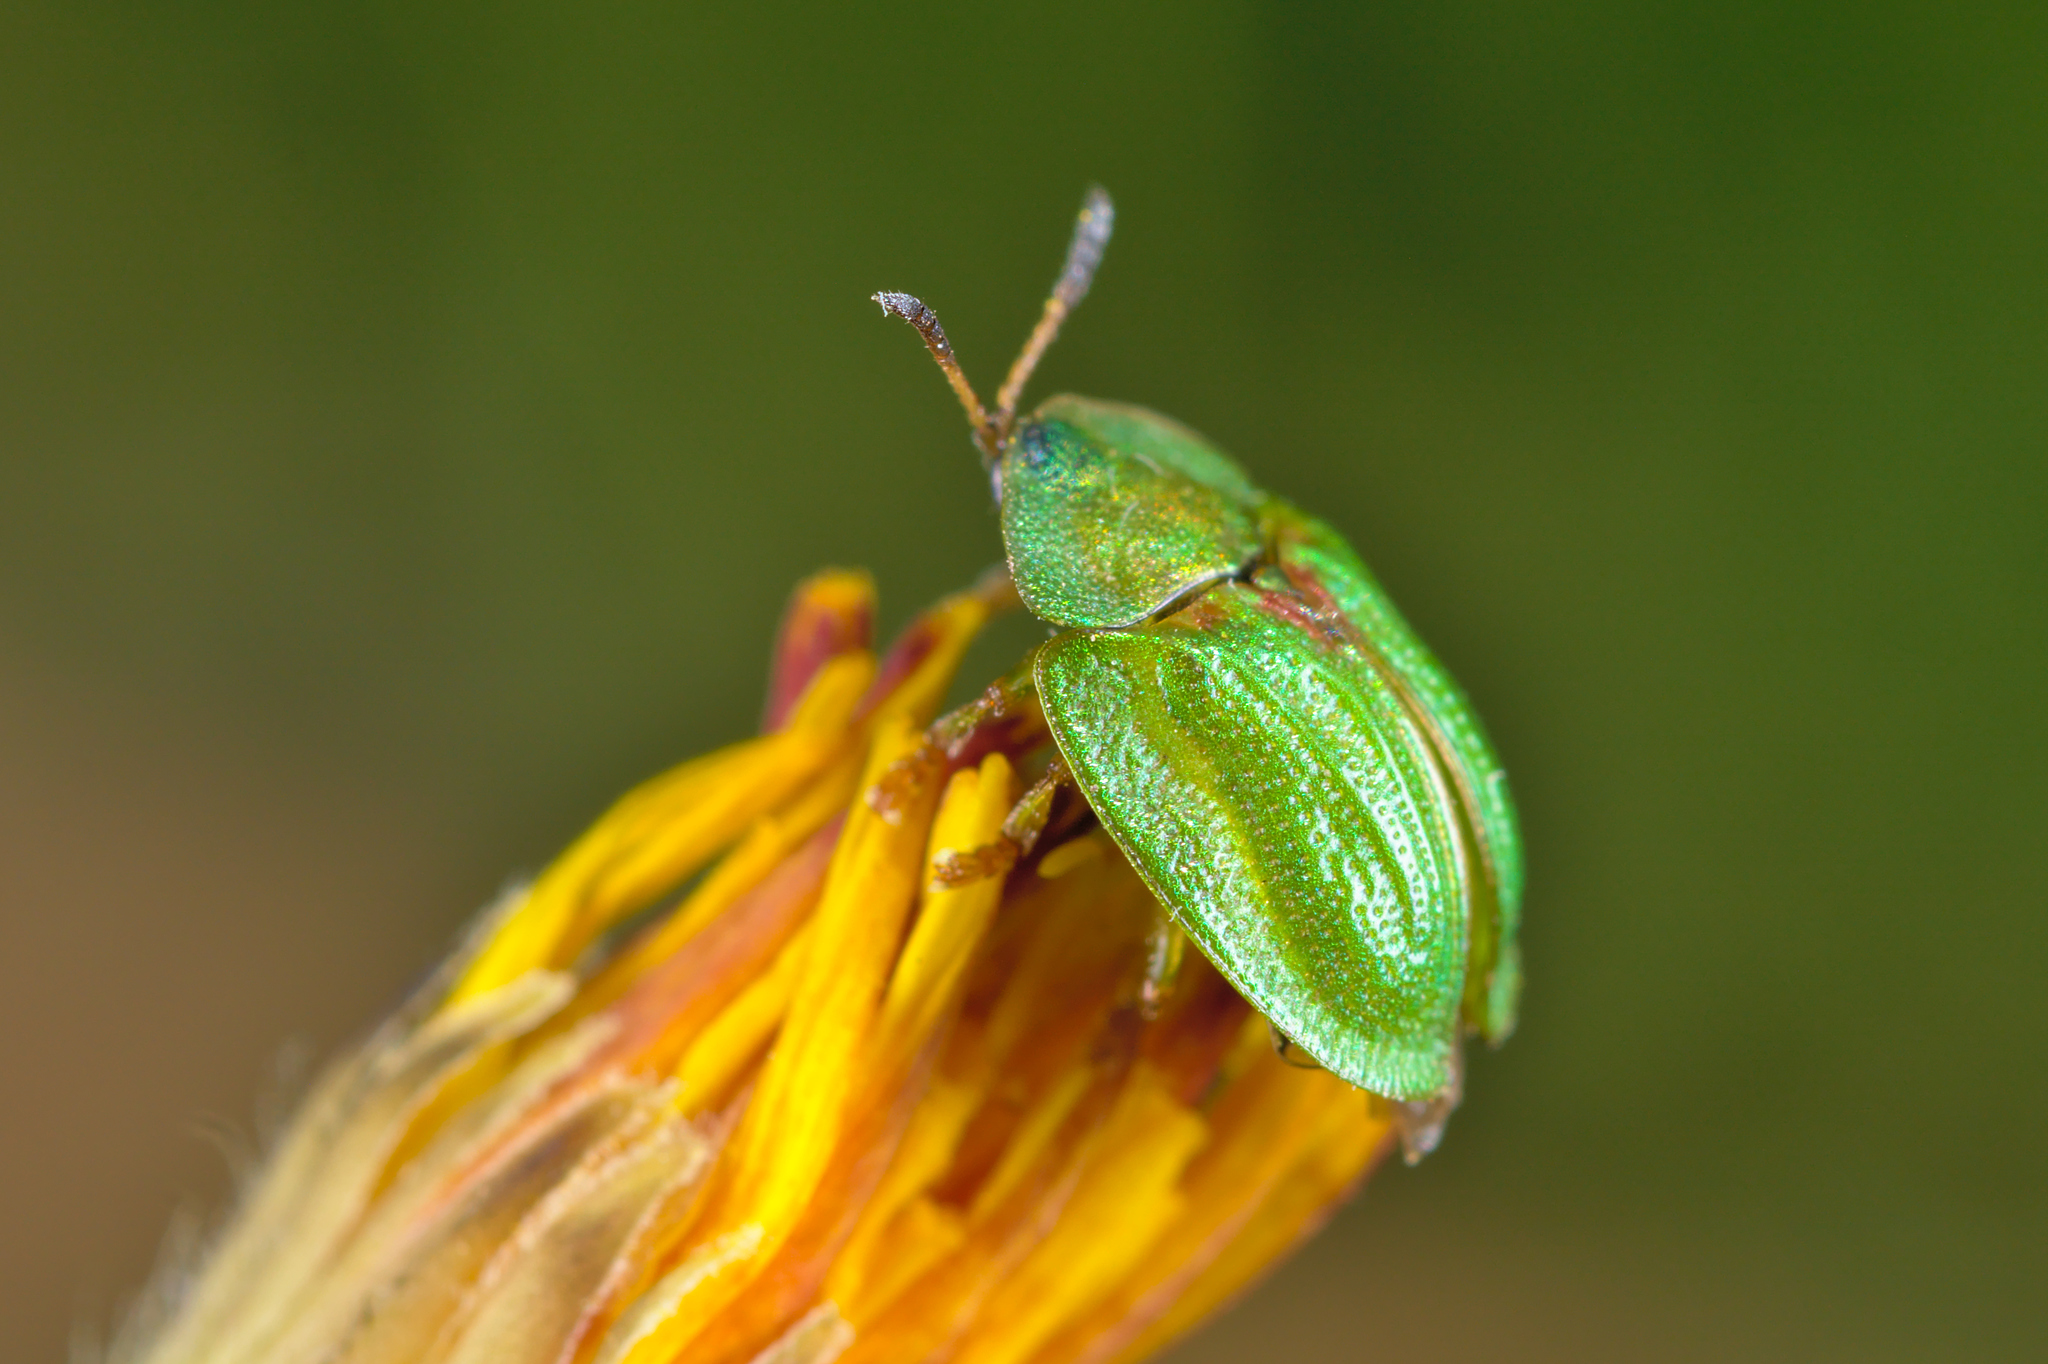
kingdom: Animalia
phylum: Arthropoda
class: Insecta
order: Coleoptera
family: Chrysomelidae
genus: Cassida
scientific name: Cassida stigmatica
